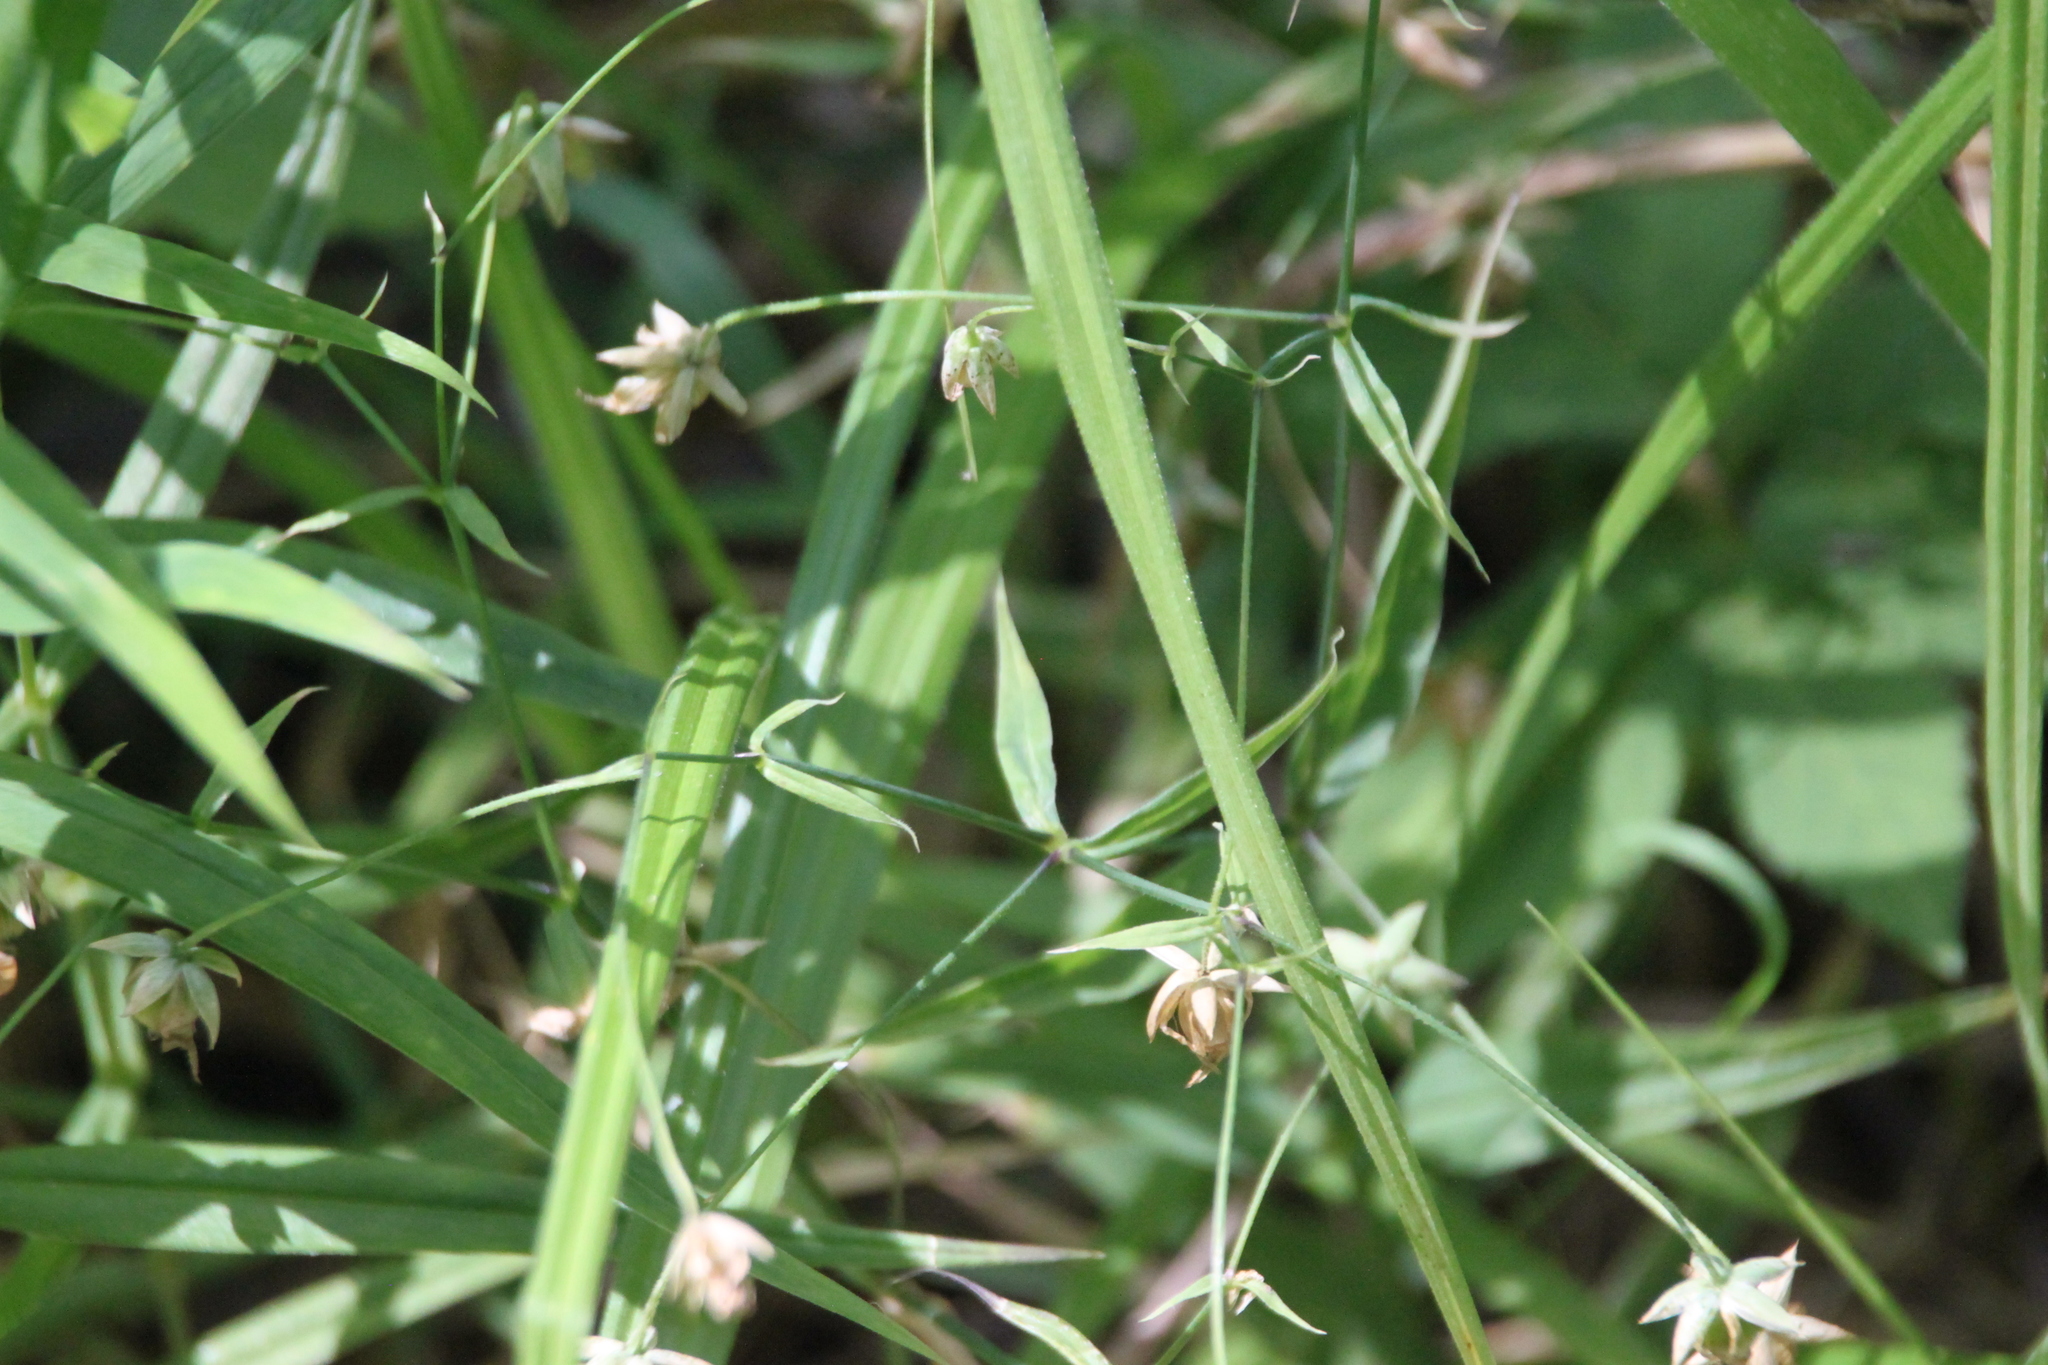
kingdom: Plantae
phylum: Tracheophyta
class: Magnoliopsida
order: Caryophyllales
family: Caryophyllaceae
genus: Rabelera
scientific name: Rabelera holostea
